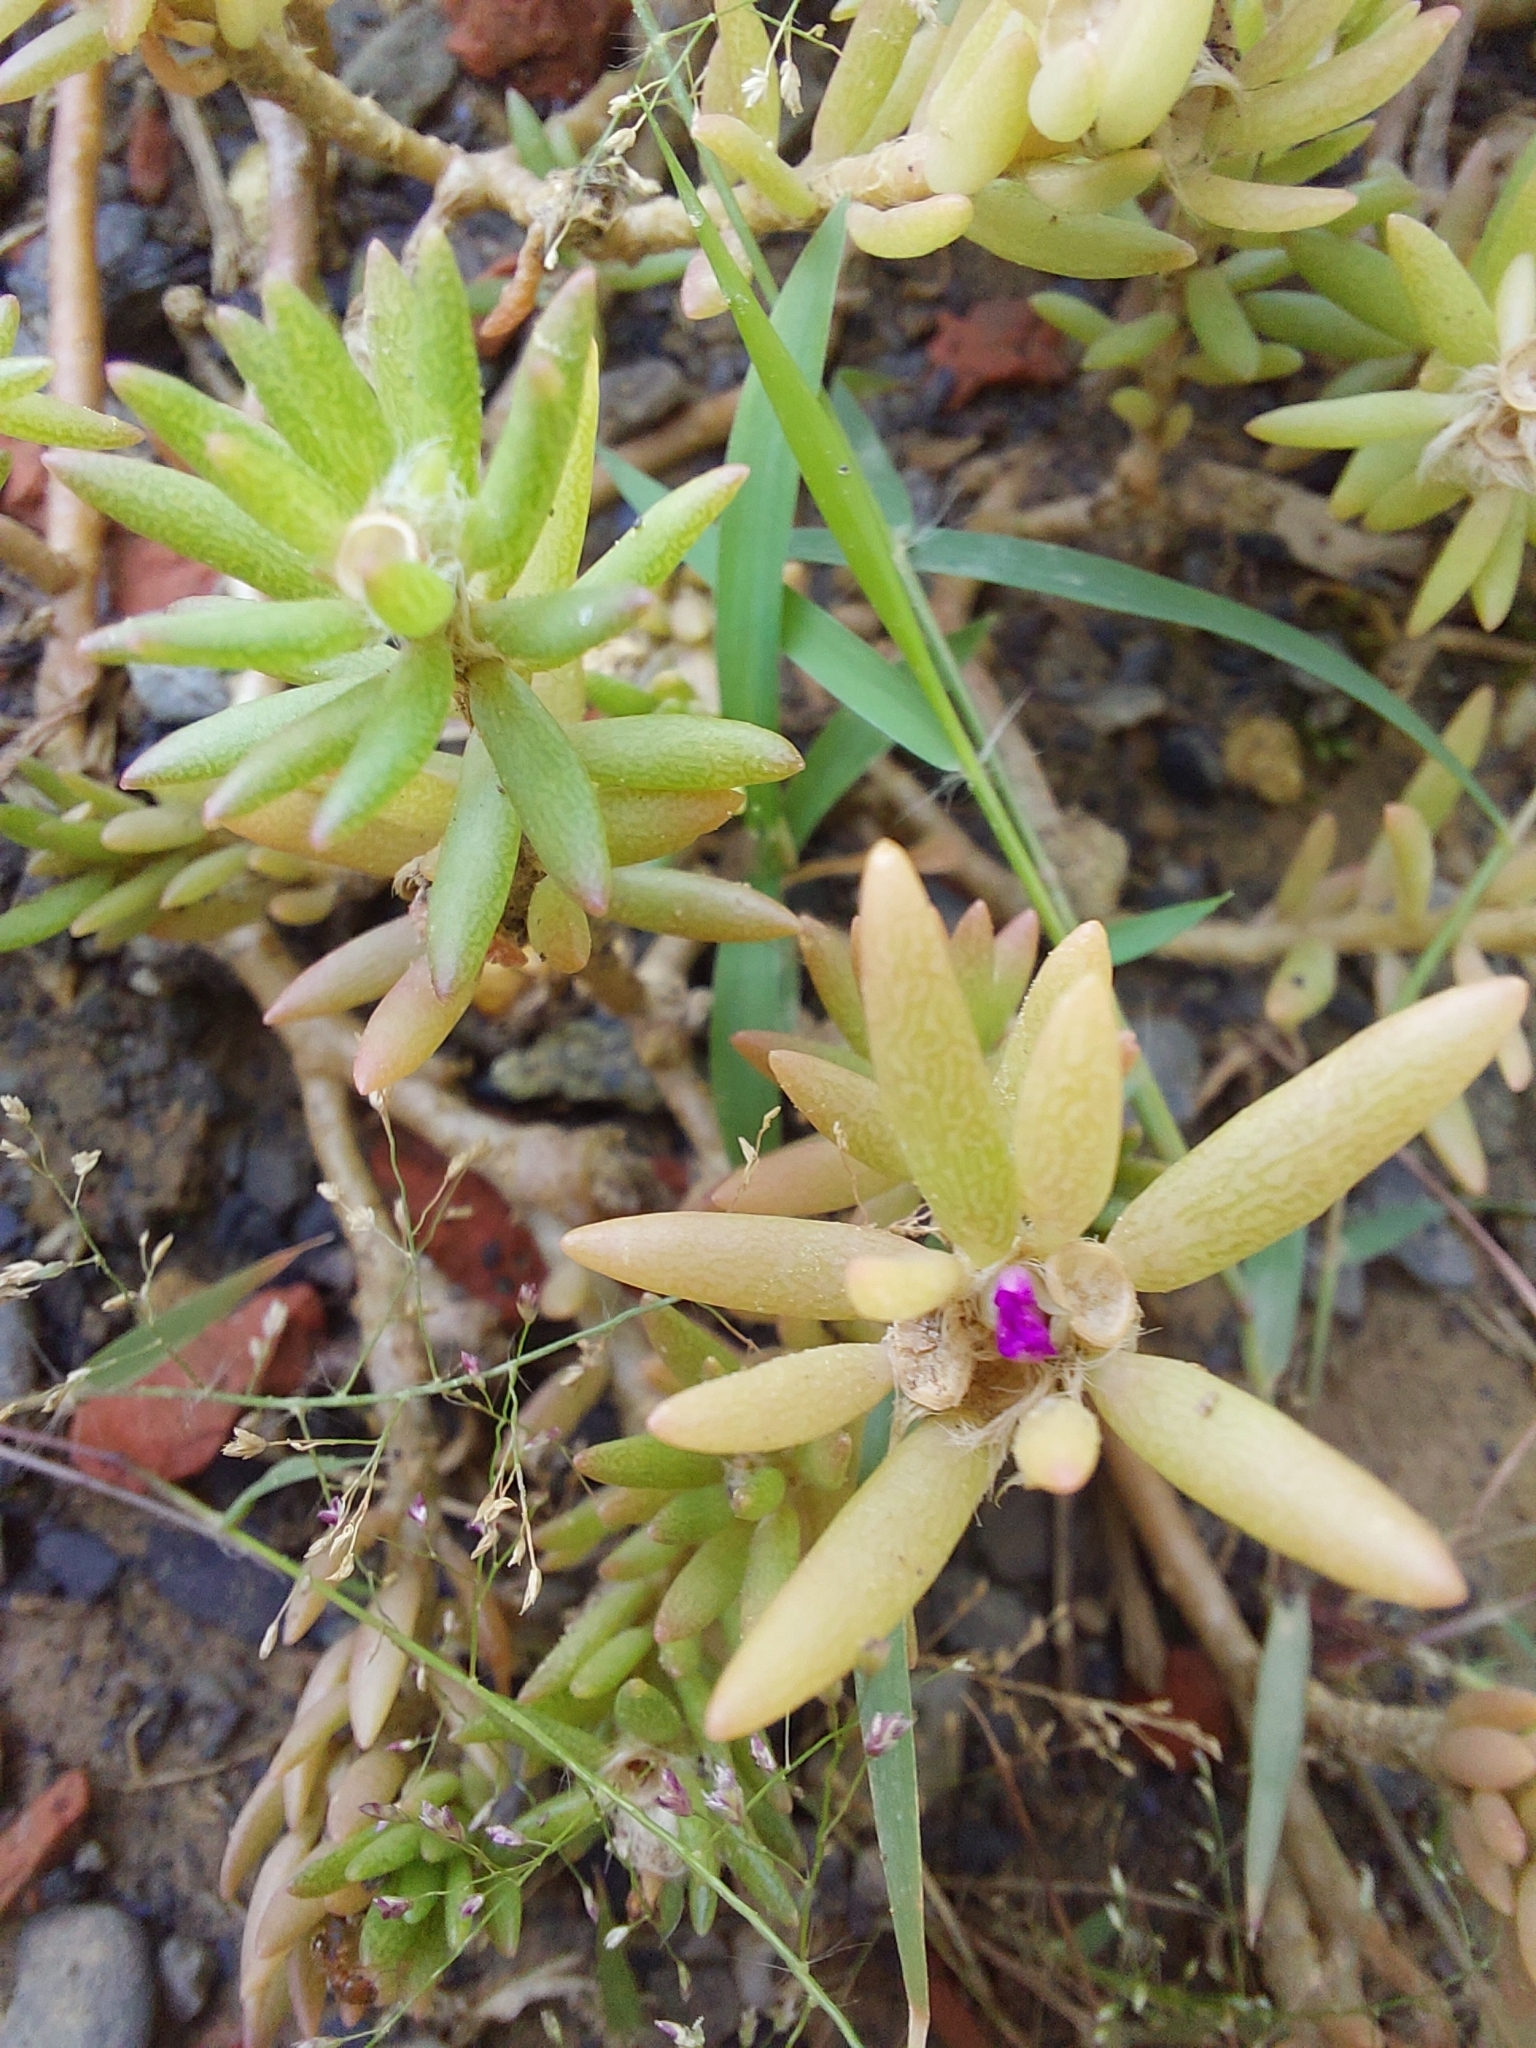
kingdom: Plantae
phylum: Tracheophyta
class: Magnoliopsida
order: Caryophyllales
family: Portulacaceae
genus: Portulaca
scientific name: Portulaca pilosa
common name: Kiss me quick
